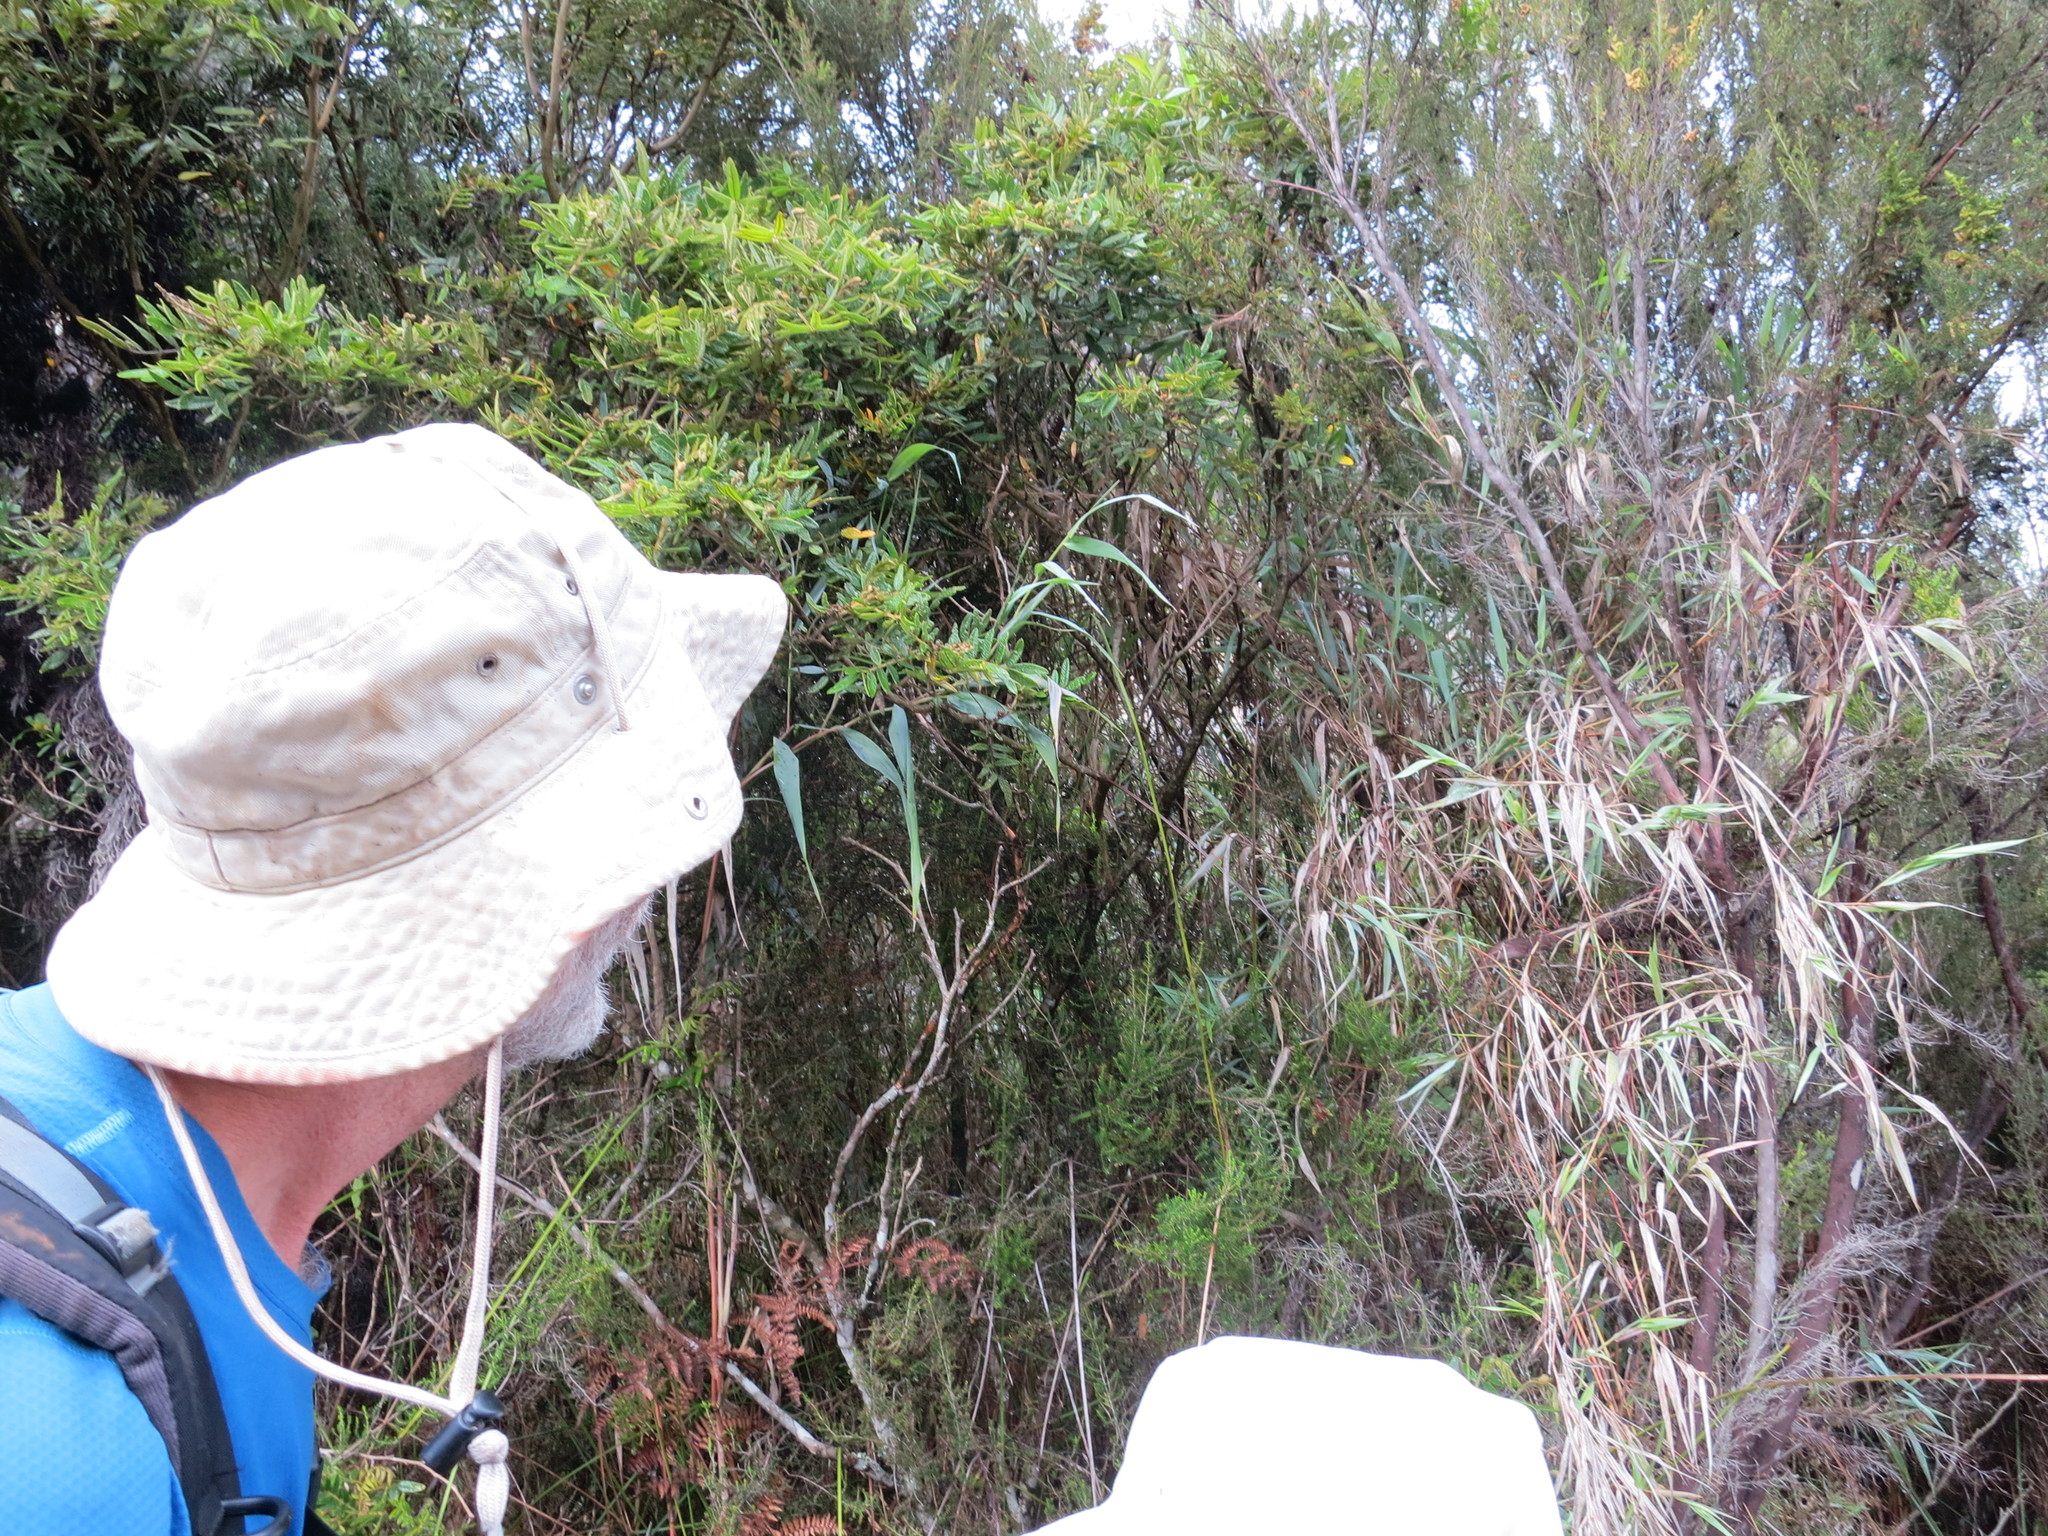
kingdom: Plantae
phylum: Tracheophyta
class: Liliopsida
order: Poales
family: Poaceae
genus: Lecomtella
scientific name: Lecomtella madagascariensis
